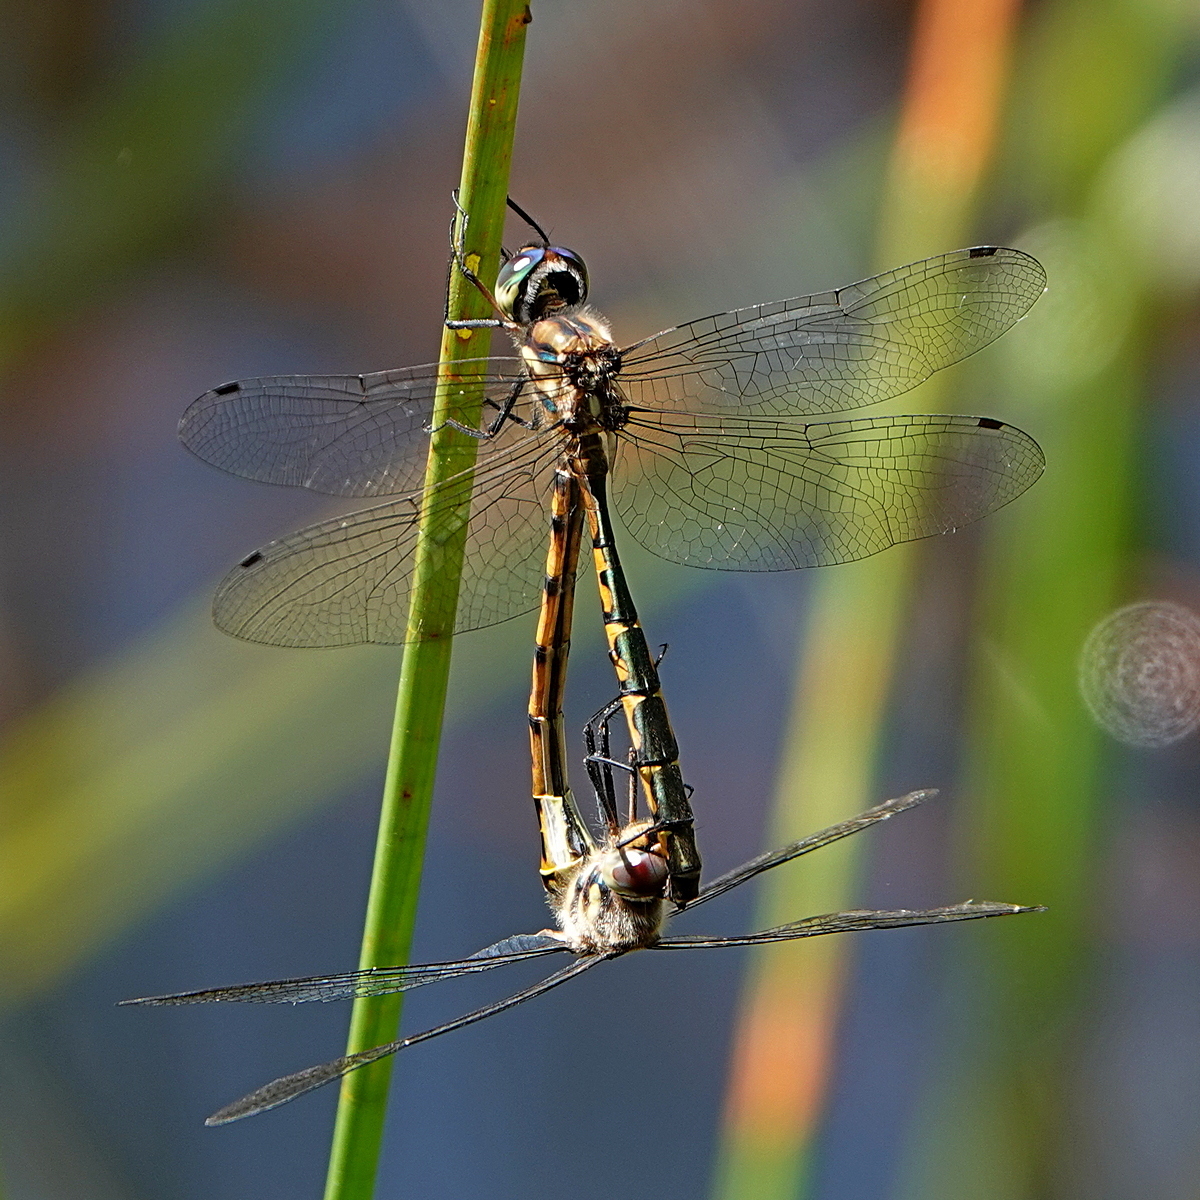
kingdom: Animalia
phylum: Arthropoda
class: Insecta
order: Odonata
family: Corduliidae
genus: Hemicordulia
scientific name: Hemicordulia australiae
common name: Sentry dragonfly
